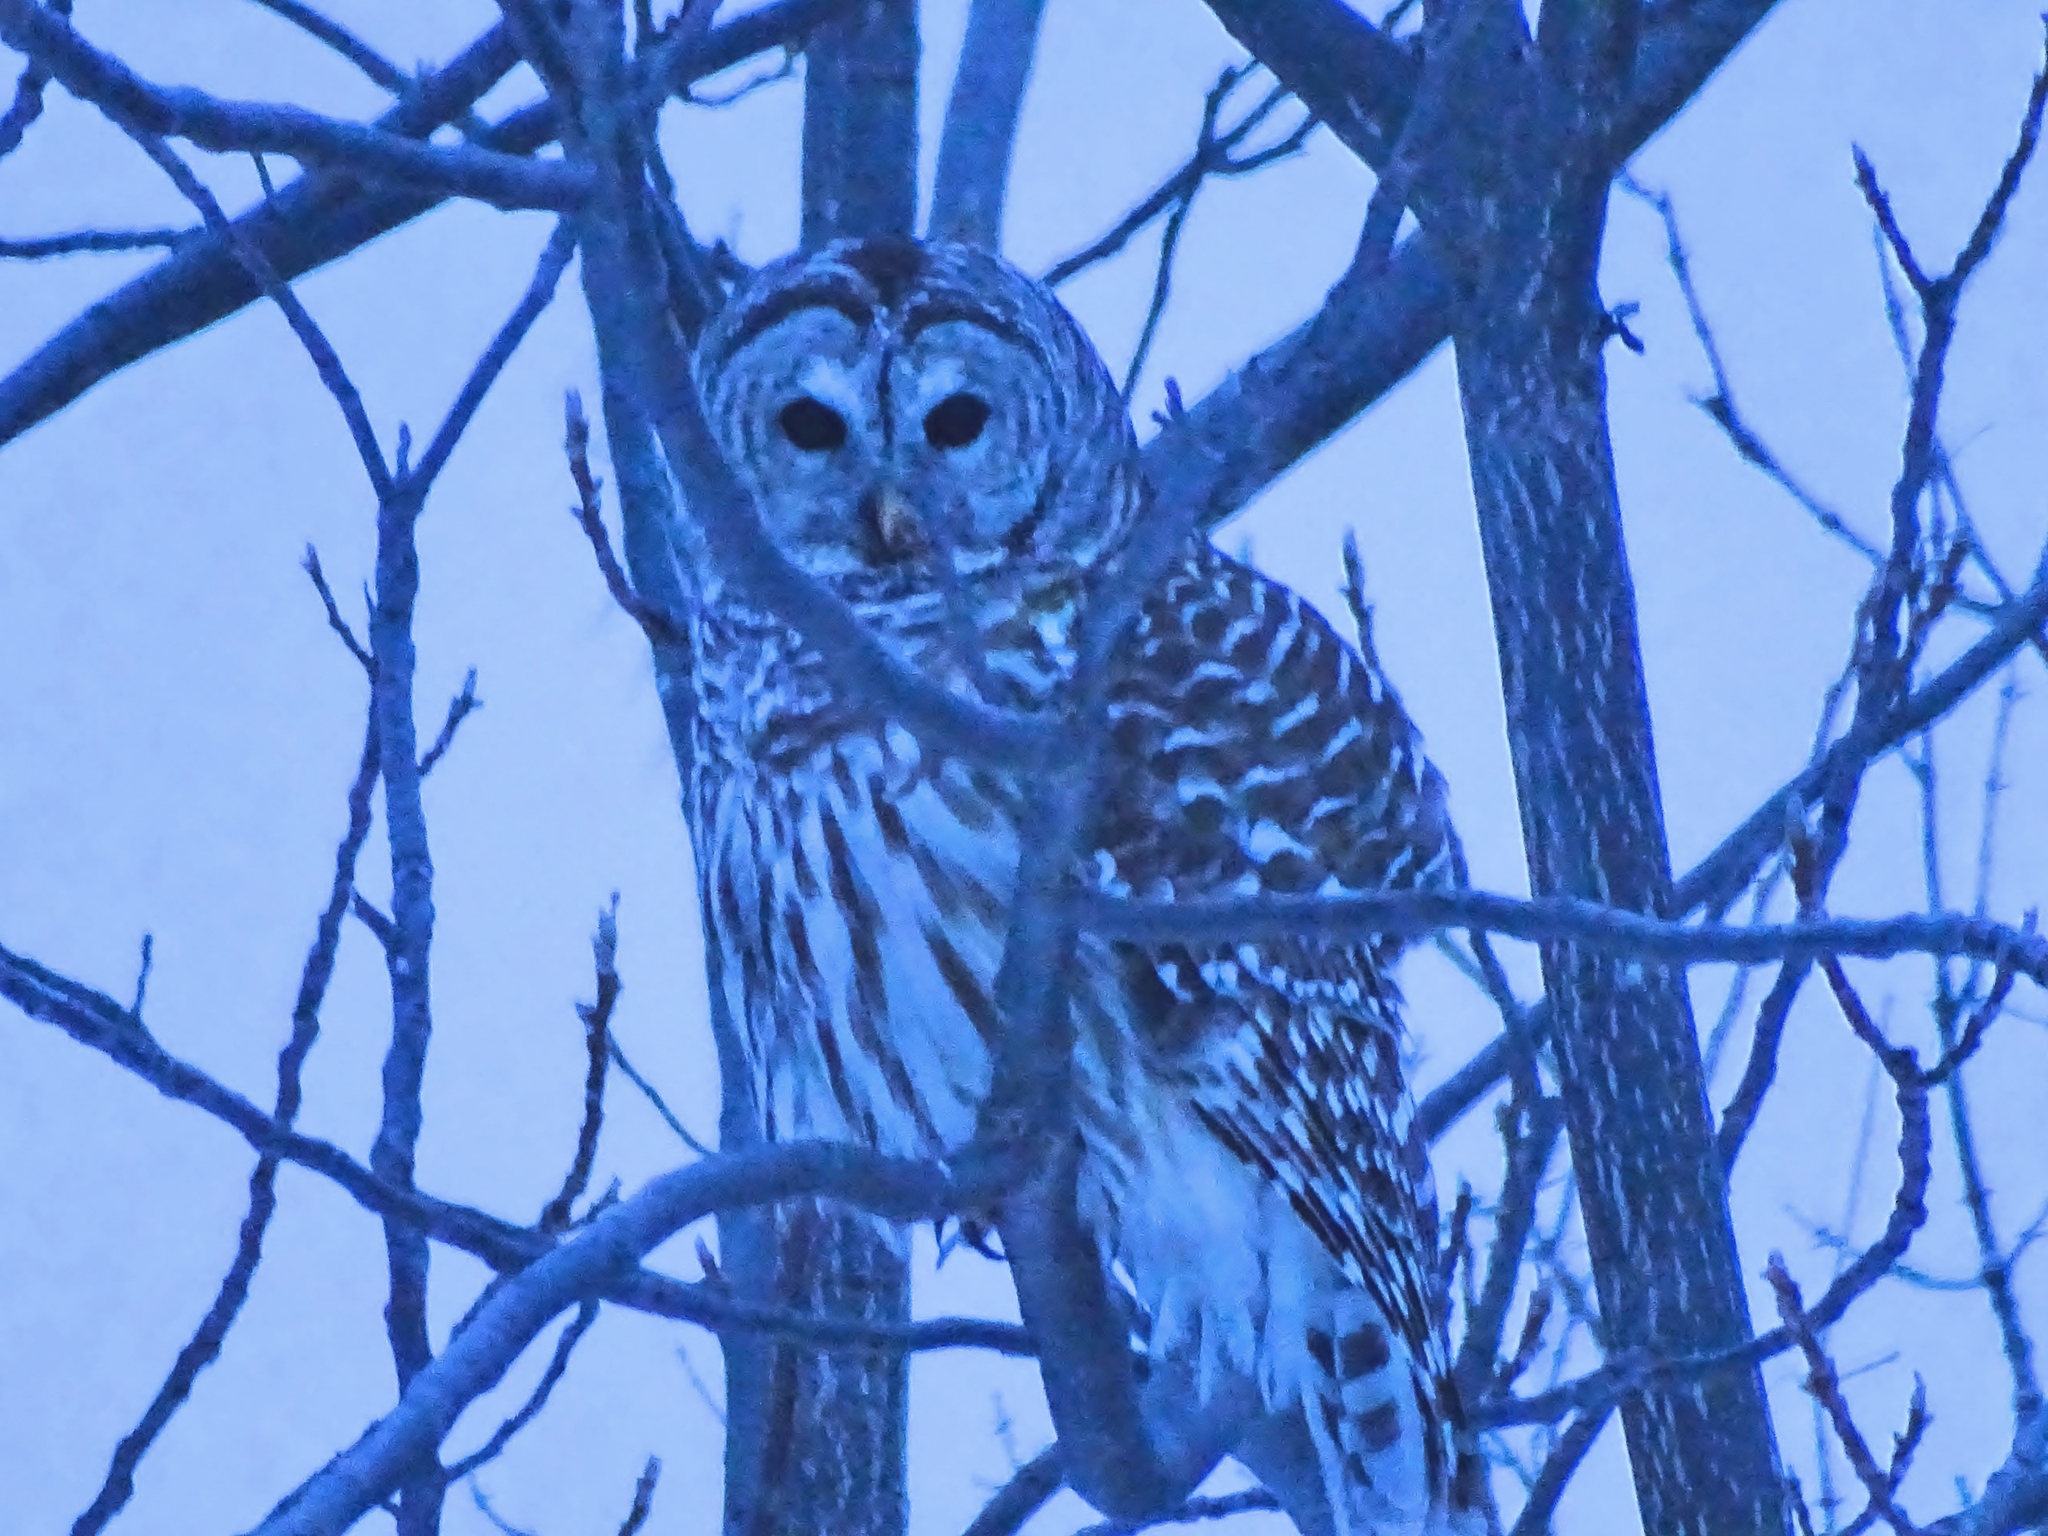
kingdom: Animalia
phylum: Chordata
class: Aves
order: Strigiformes
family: Strigidae
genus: Strix
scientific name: Strix varia
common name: Barred owl
